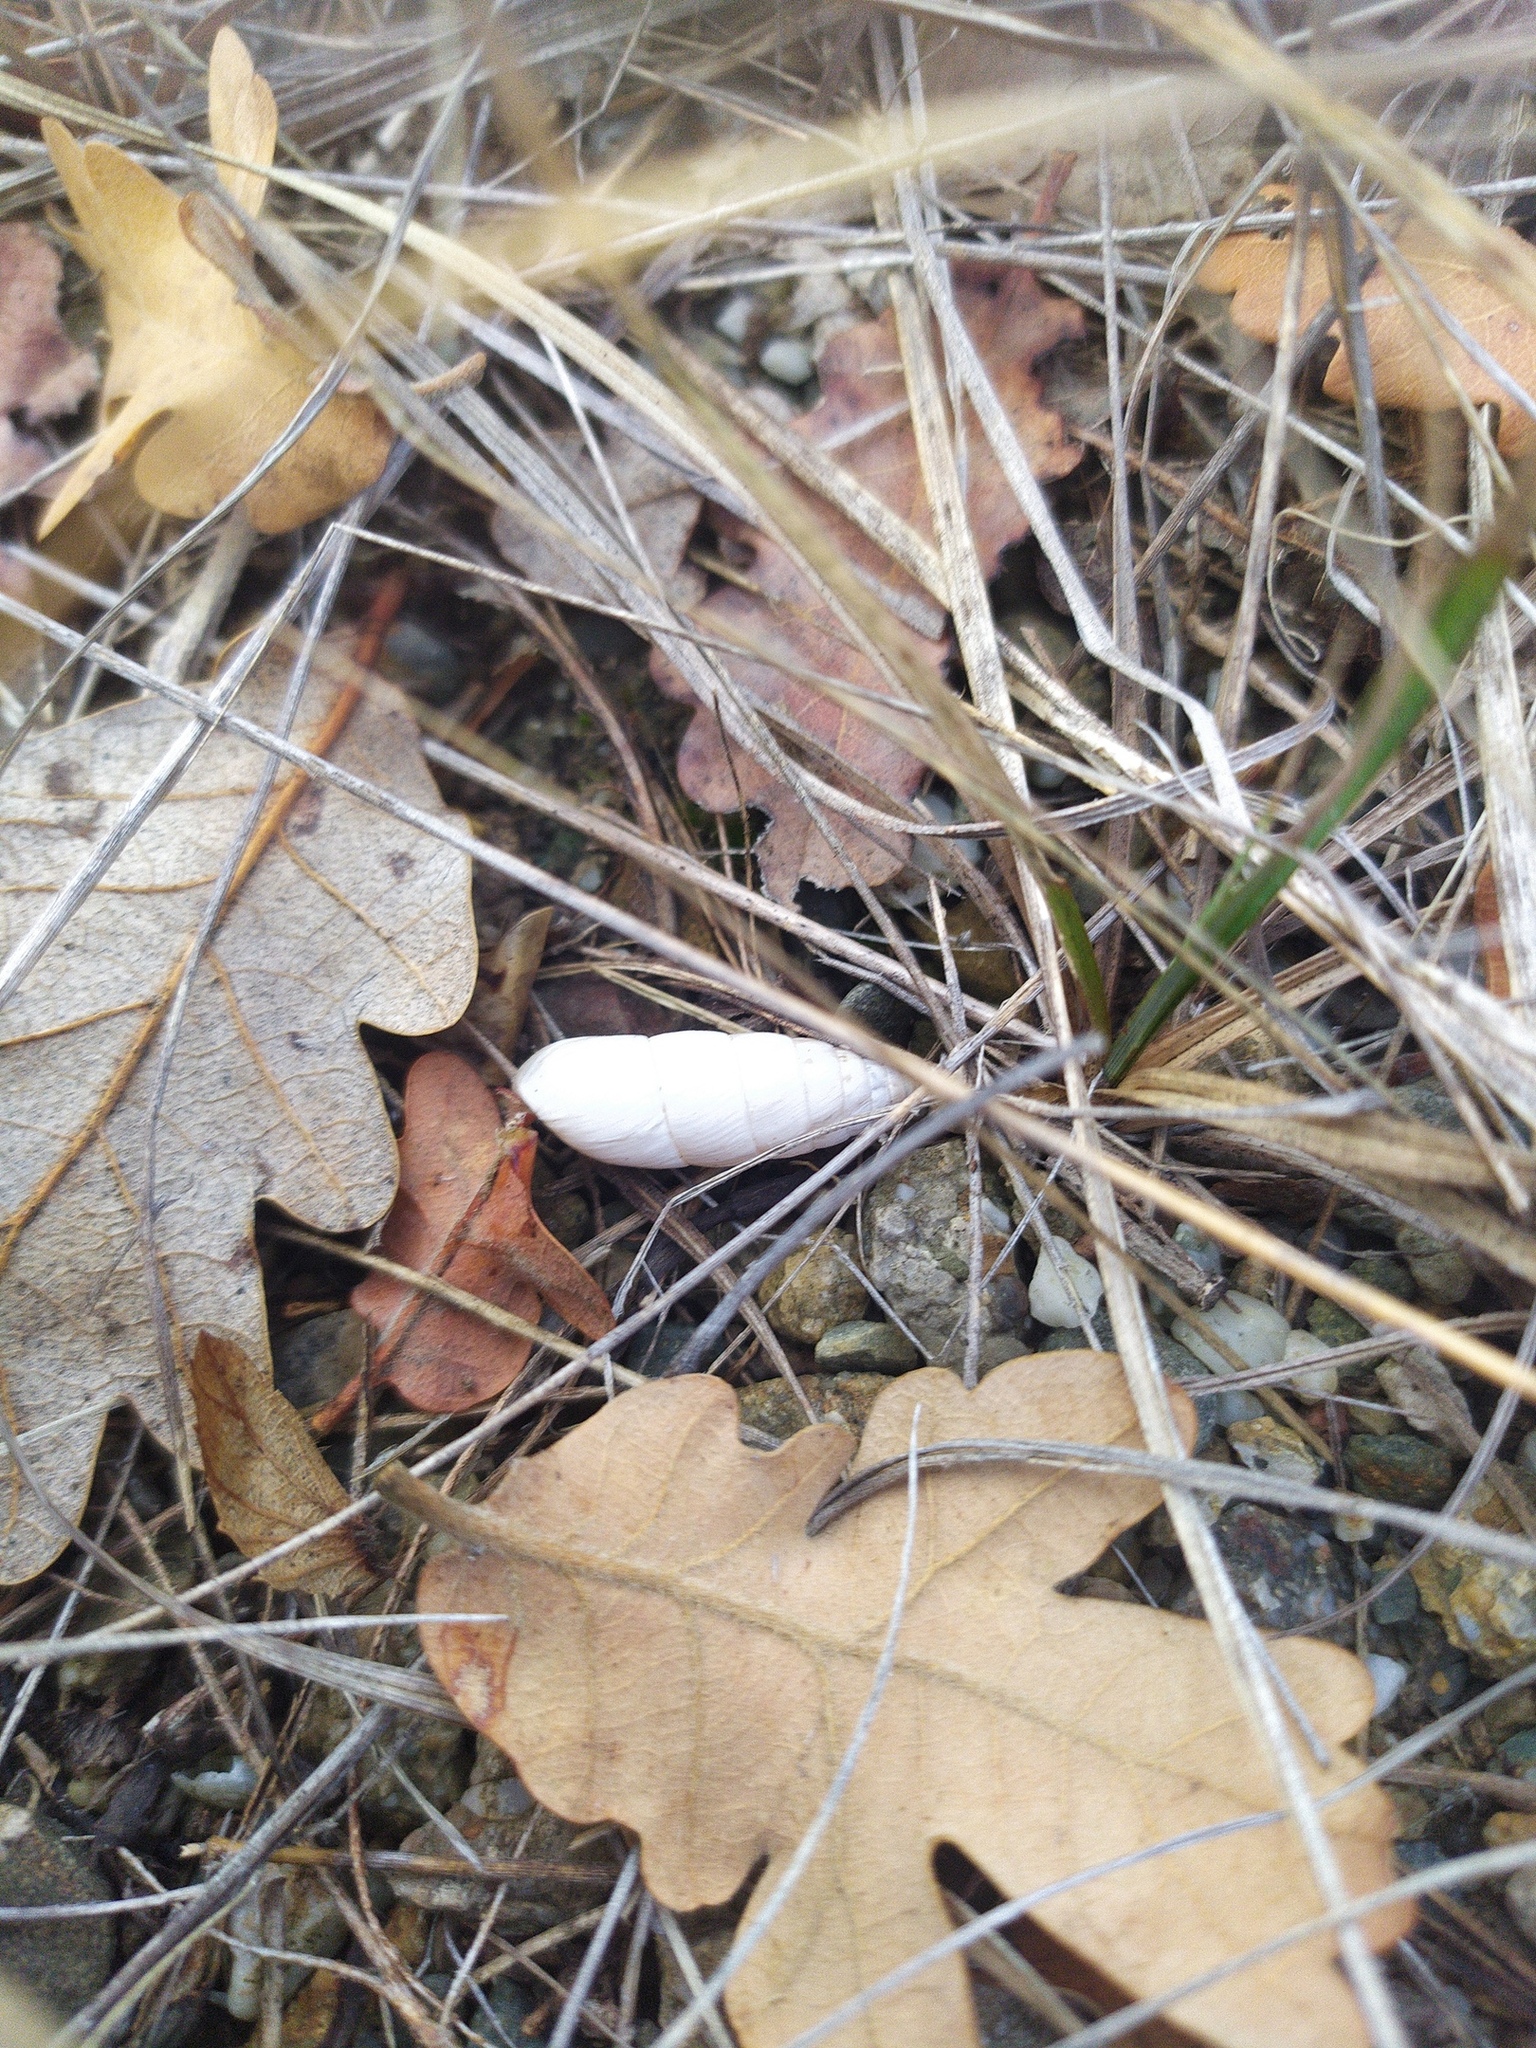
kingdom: Animalia
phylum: Mollusca
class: Gastropoda
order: Stylommatophora
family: Enidae
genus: Brephulopsis
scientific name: Brephulopsis cylindrica
